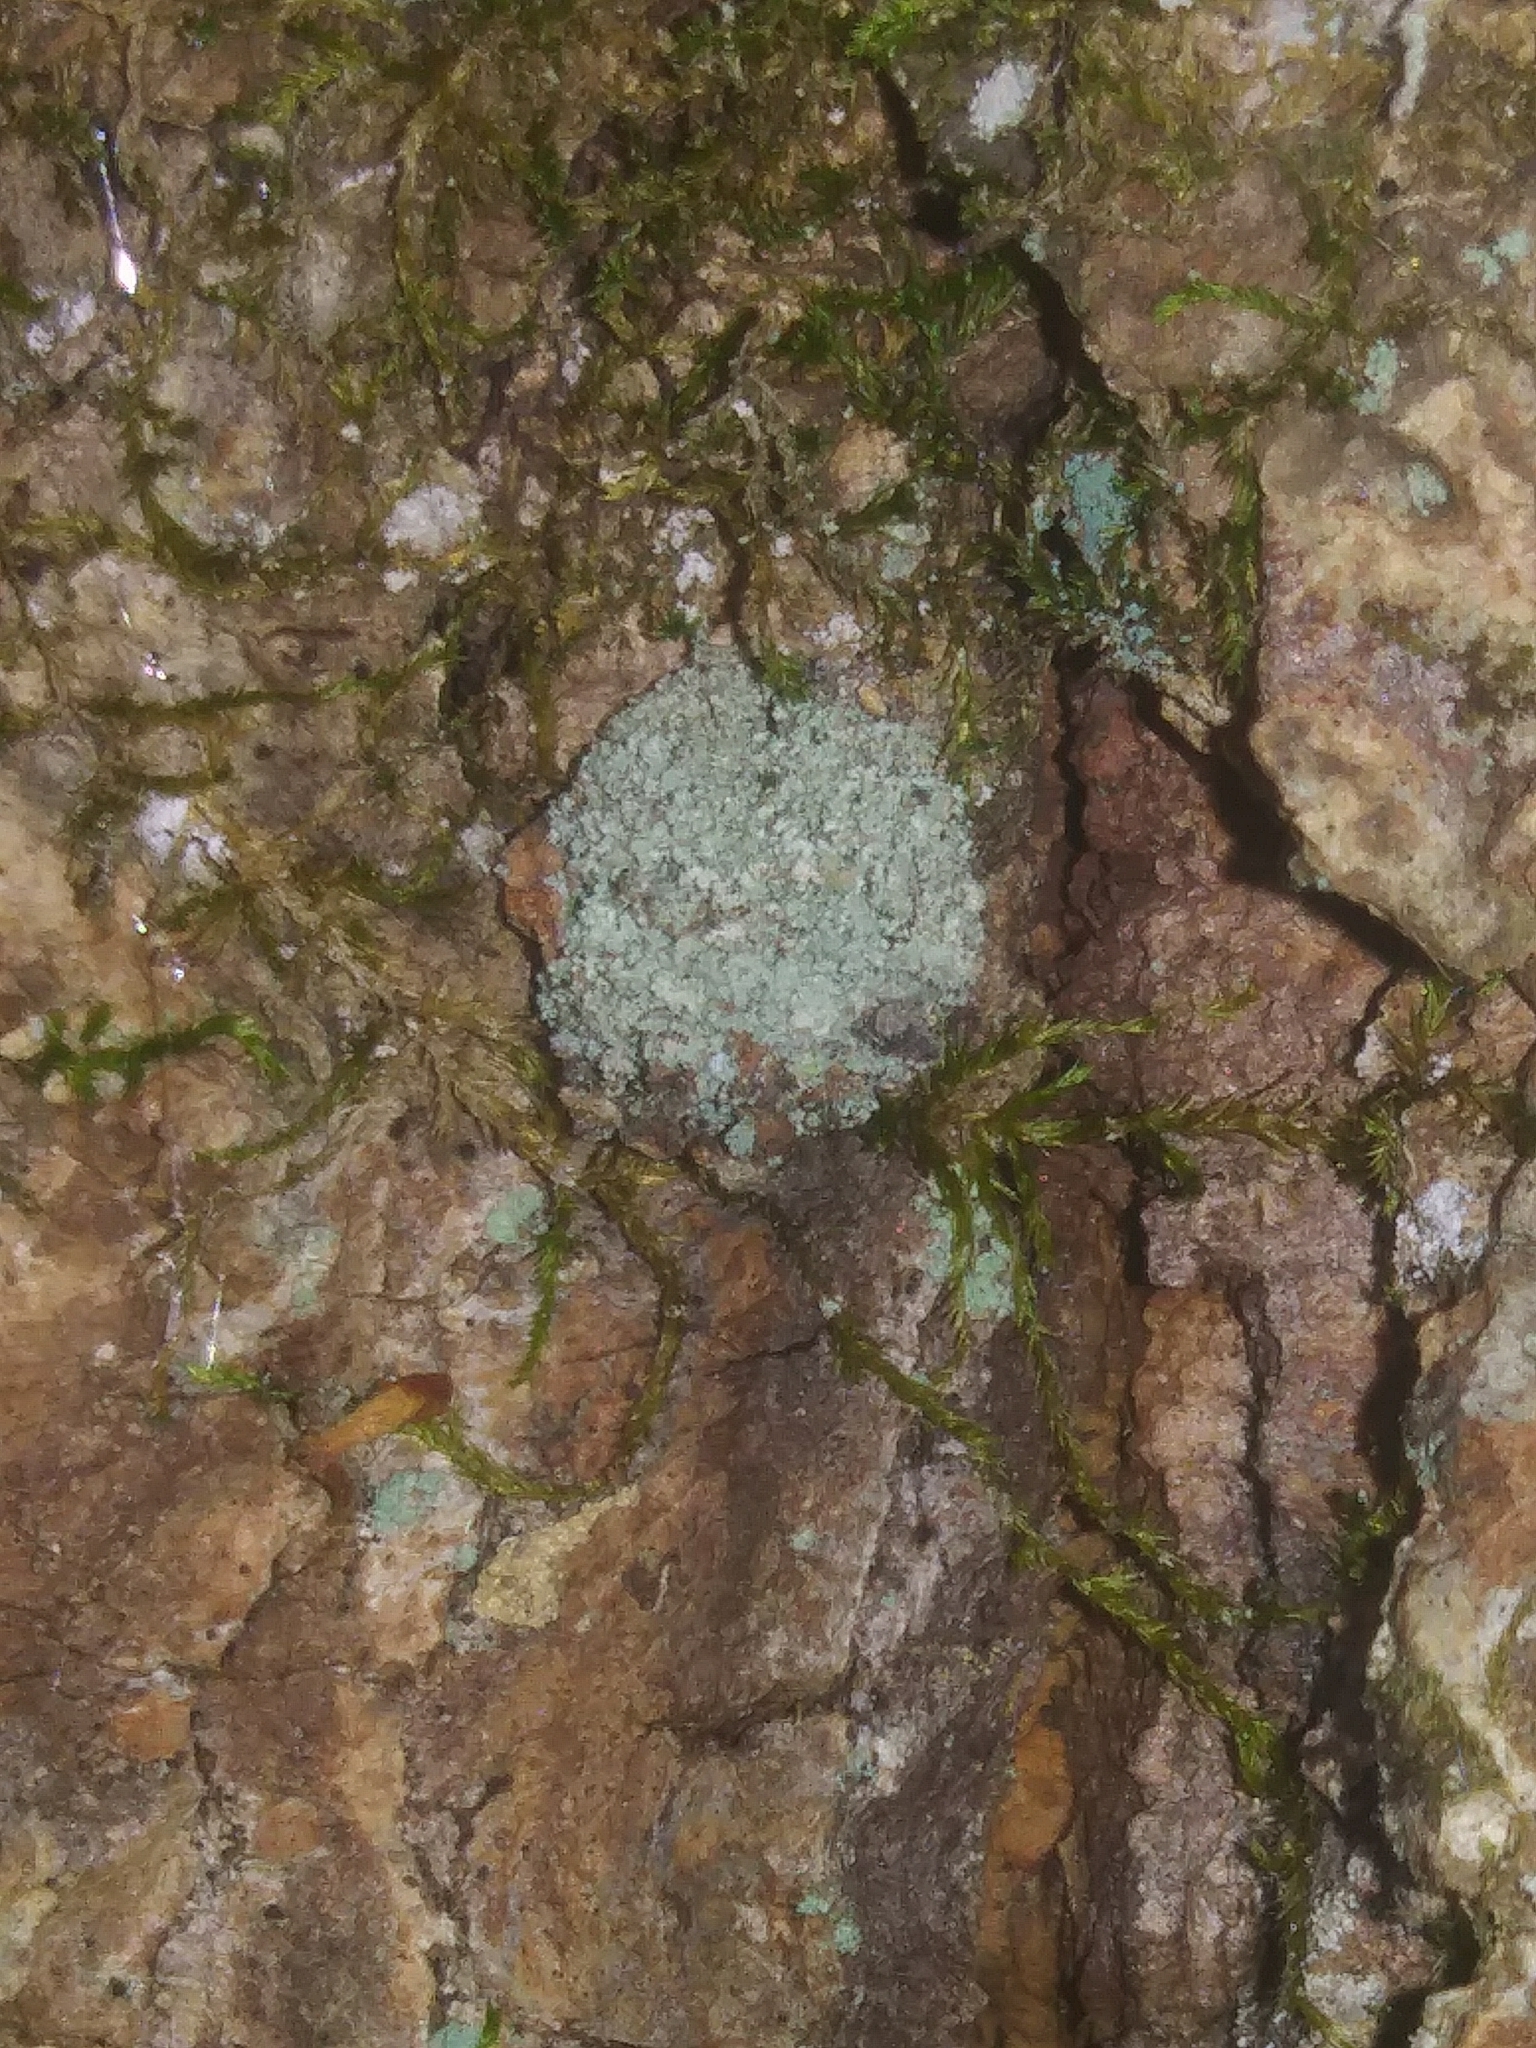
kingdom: Animalia
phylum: Arthropoda
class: Insecta
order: Neuroptera
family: Chrysopidae
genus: Leucochrysa
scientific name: Leucochrysa pavida
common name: Lichen-carrying green lacewing
